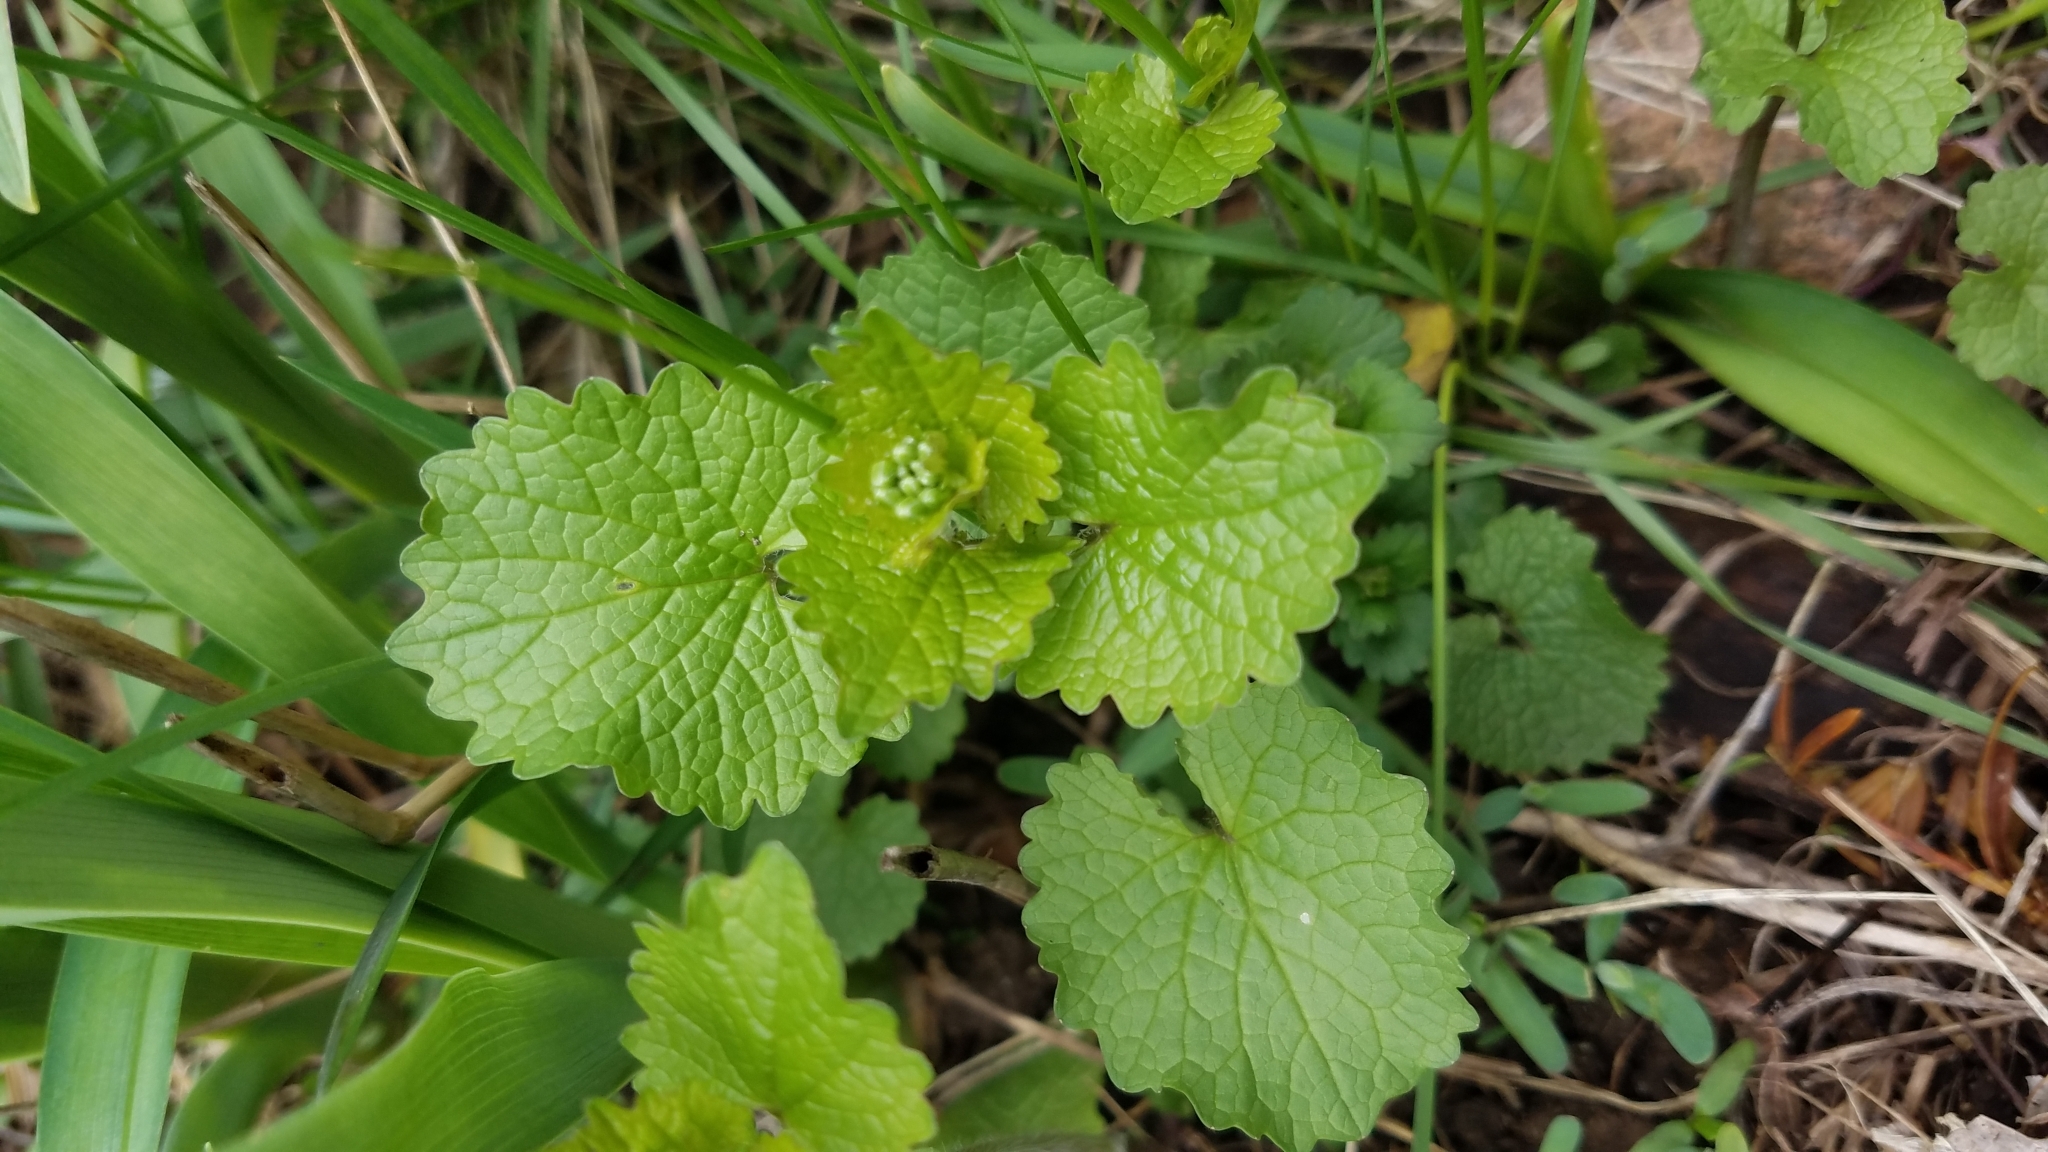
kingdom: Plantae
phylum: Tracheophyta
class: Magnoliopsida
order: Brassicales
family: Brassicaceae
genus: Alliaria
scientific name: Alliaria petiolata
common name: Garlic mustard
